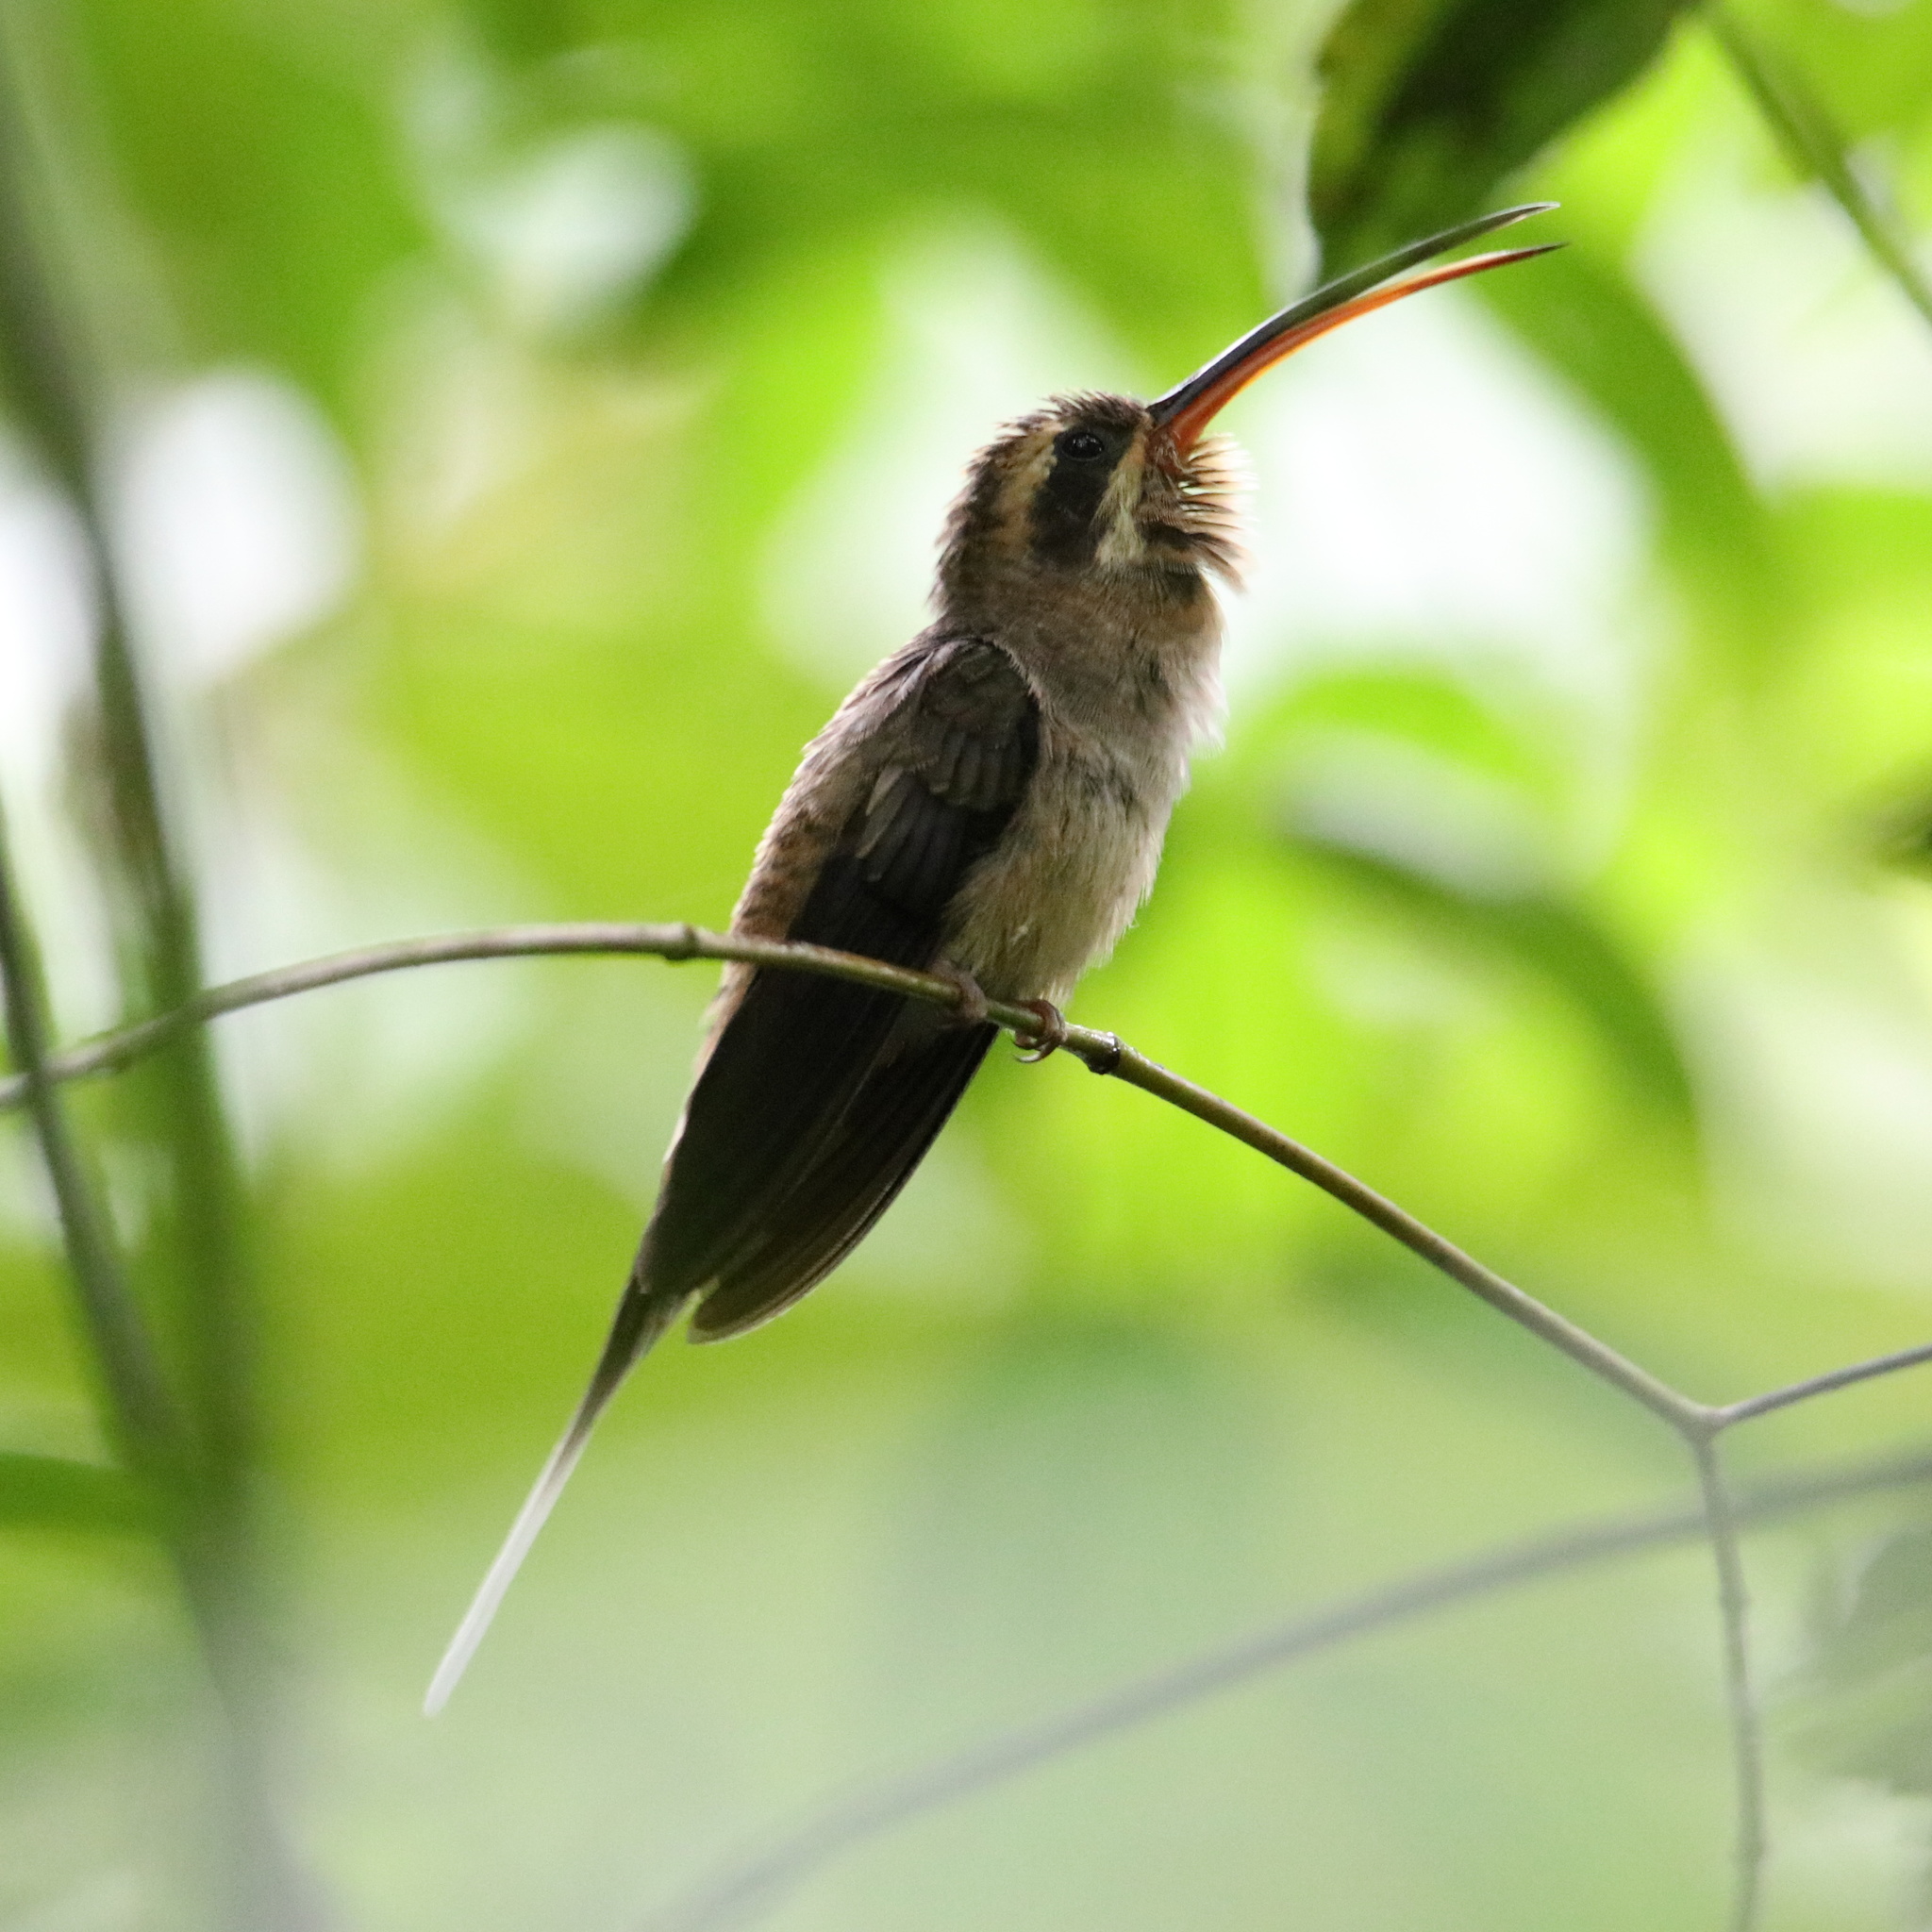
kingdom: Animalia
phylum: Chordata
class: Aves
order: Apodiformes
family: Trochilidae
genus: Phaethornis
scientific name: Phaethornis longirostris
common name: Long-billed hermit
